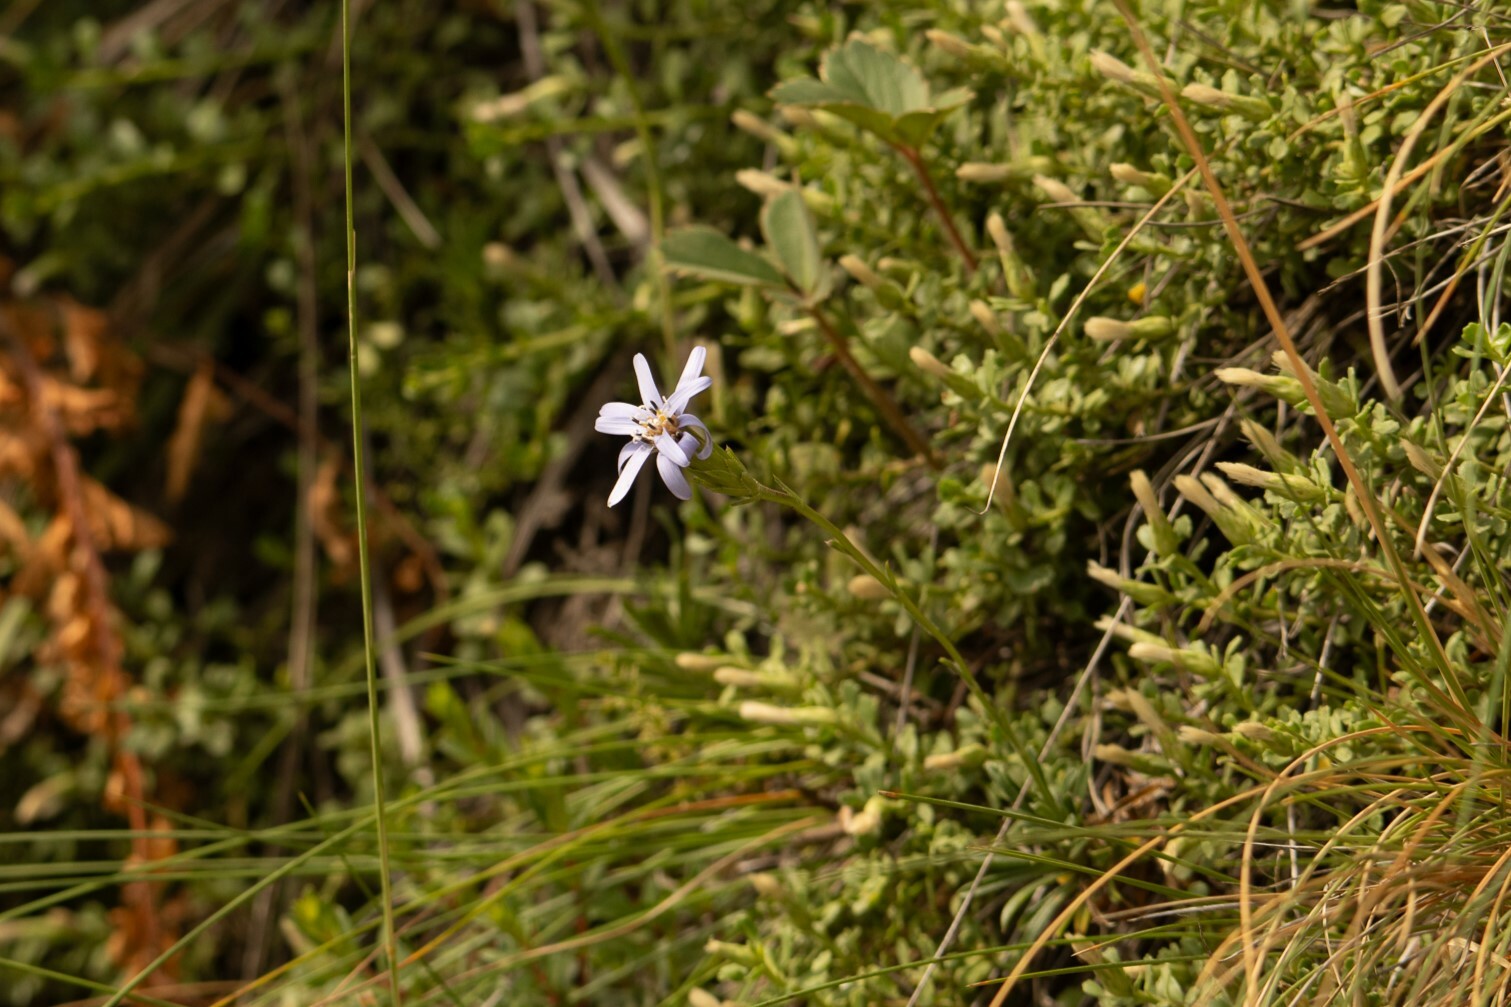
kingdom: Plantae
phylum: Tracheophyta
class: Magnoliopsida
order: Asterales
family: Asteraceae
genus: Perezia
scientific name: Perezia recurvata
